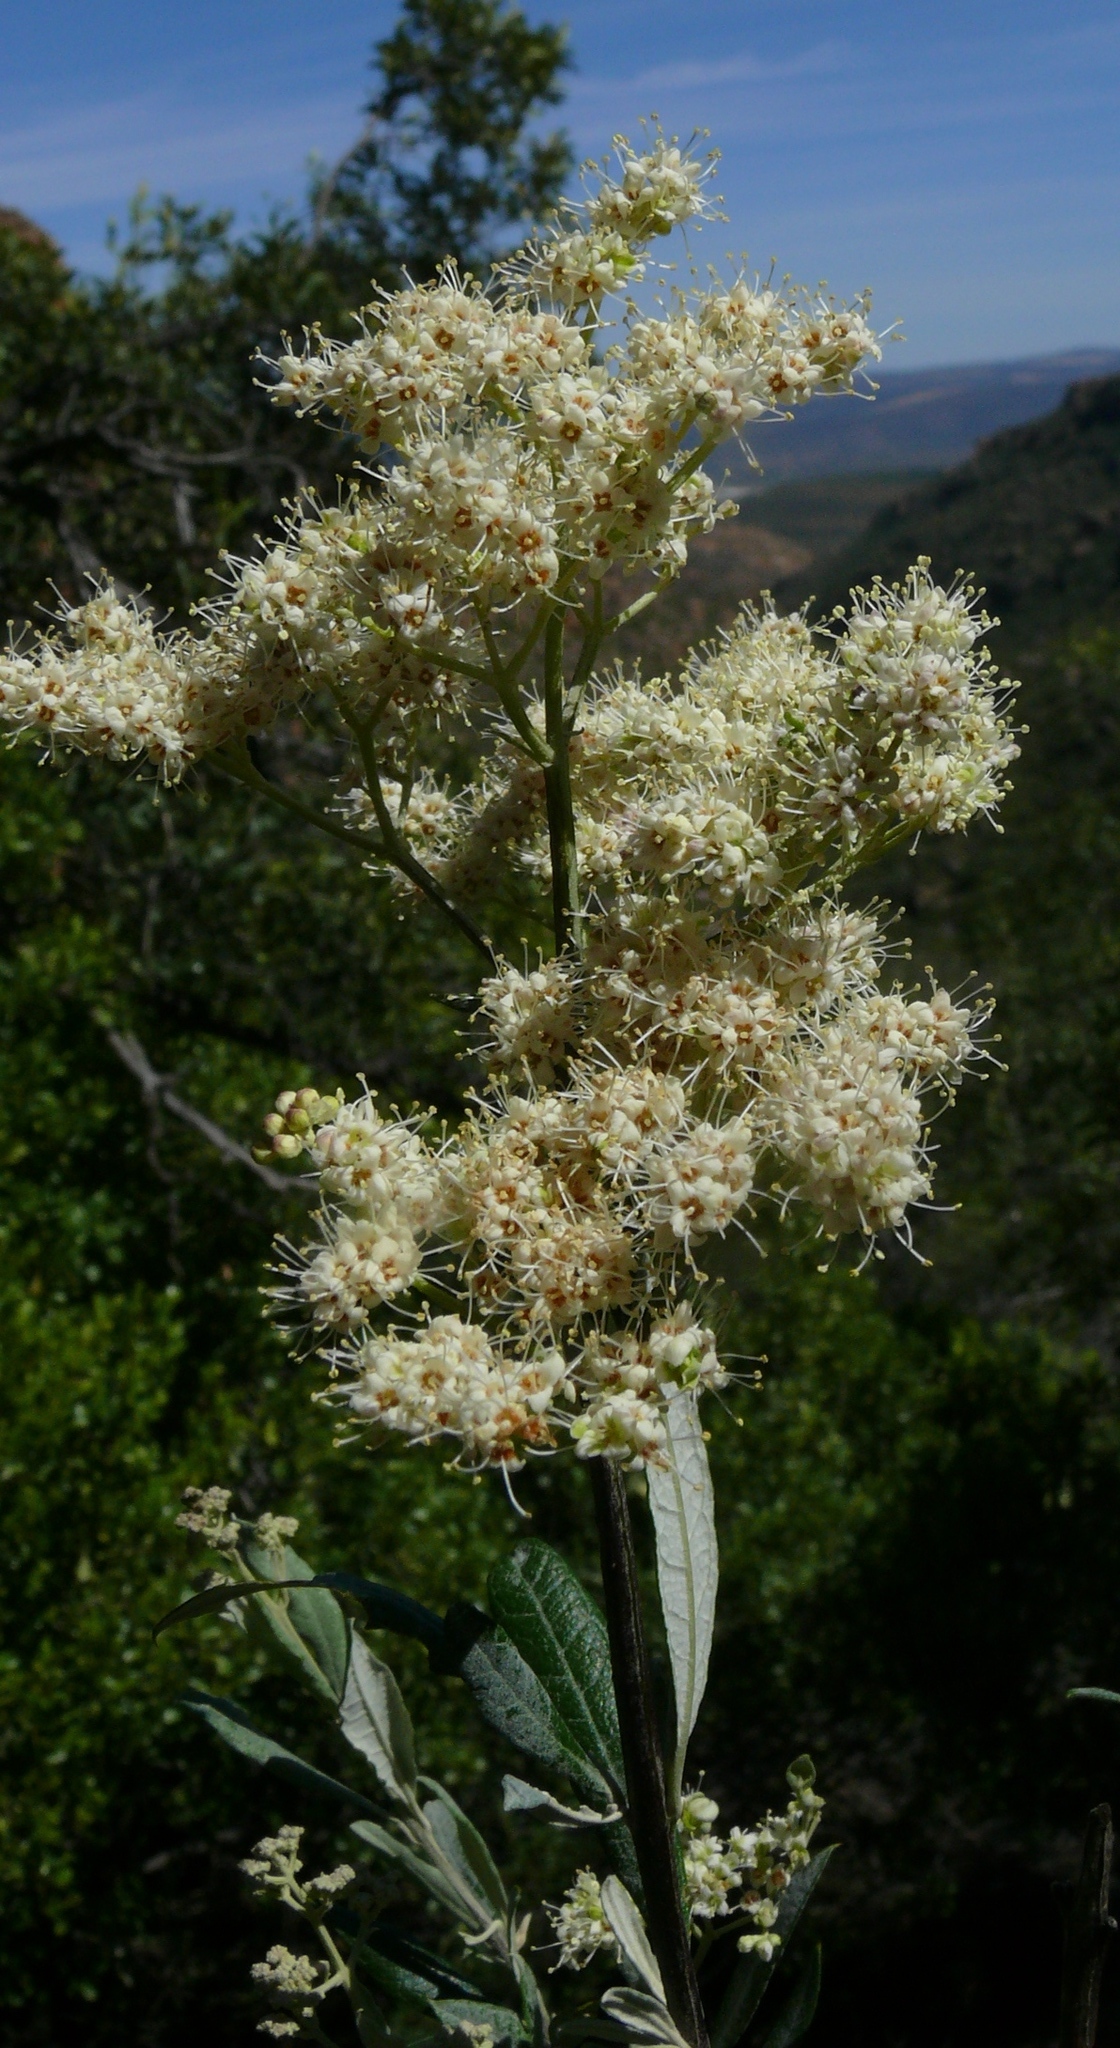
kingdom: Plantae
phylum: Tracheophyta
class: Magnoliopsida
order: Lamiales
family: Scrophulariaceae
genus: Buddleja
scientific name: Buddleja saligna
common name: False olive
